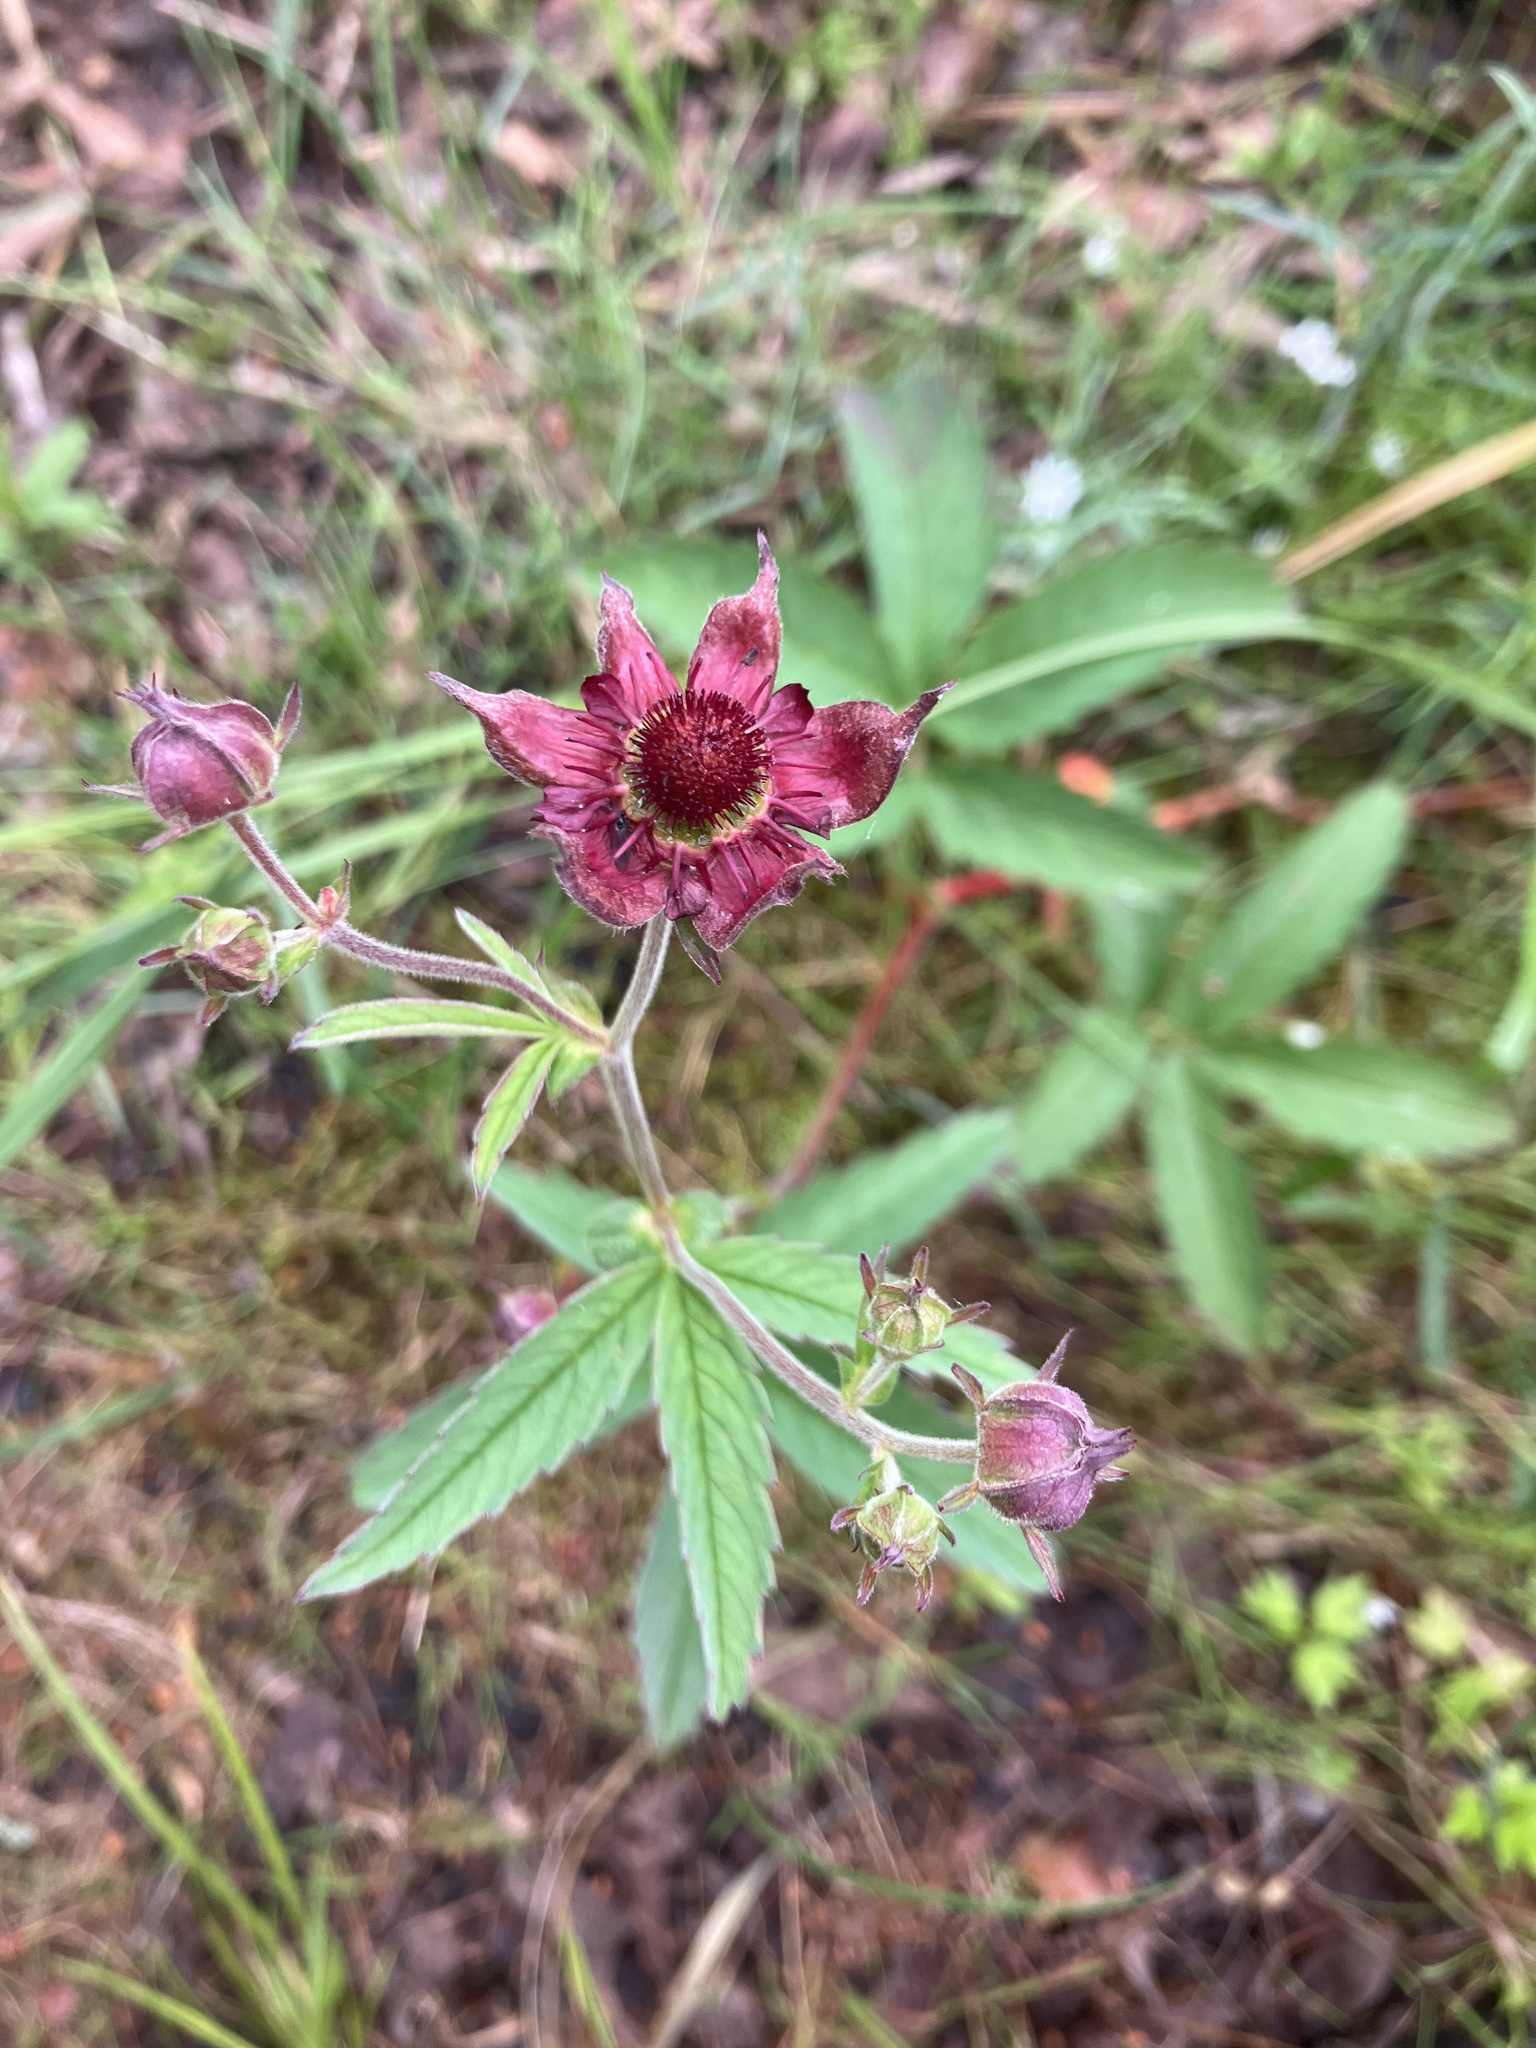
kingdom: Plantae
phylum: Tracheophyta
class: Magnoliopsida
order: Rosales
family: Rosaceae
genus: Comarum
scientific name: Comarum palustre
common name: Marsh cinquefoil
